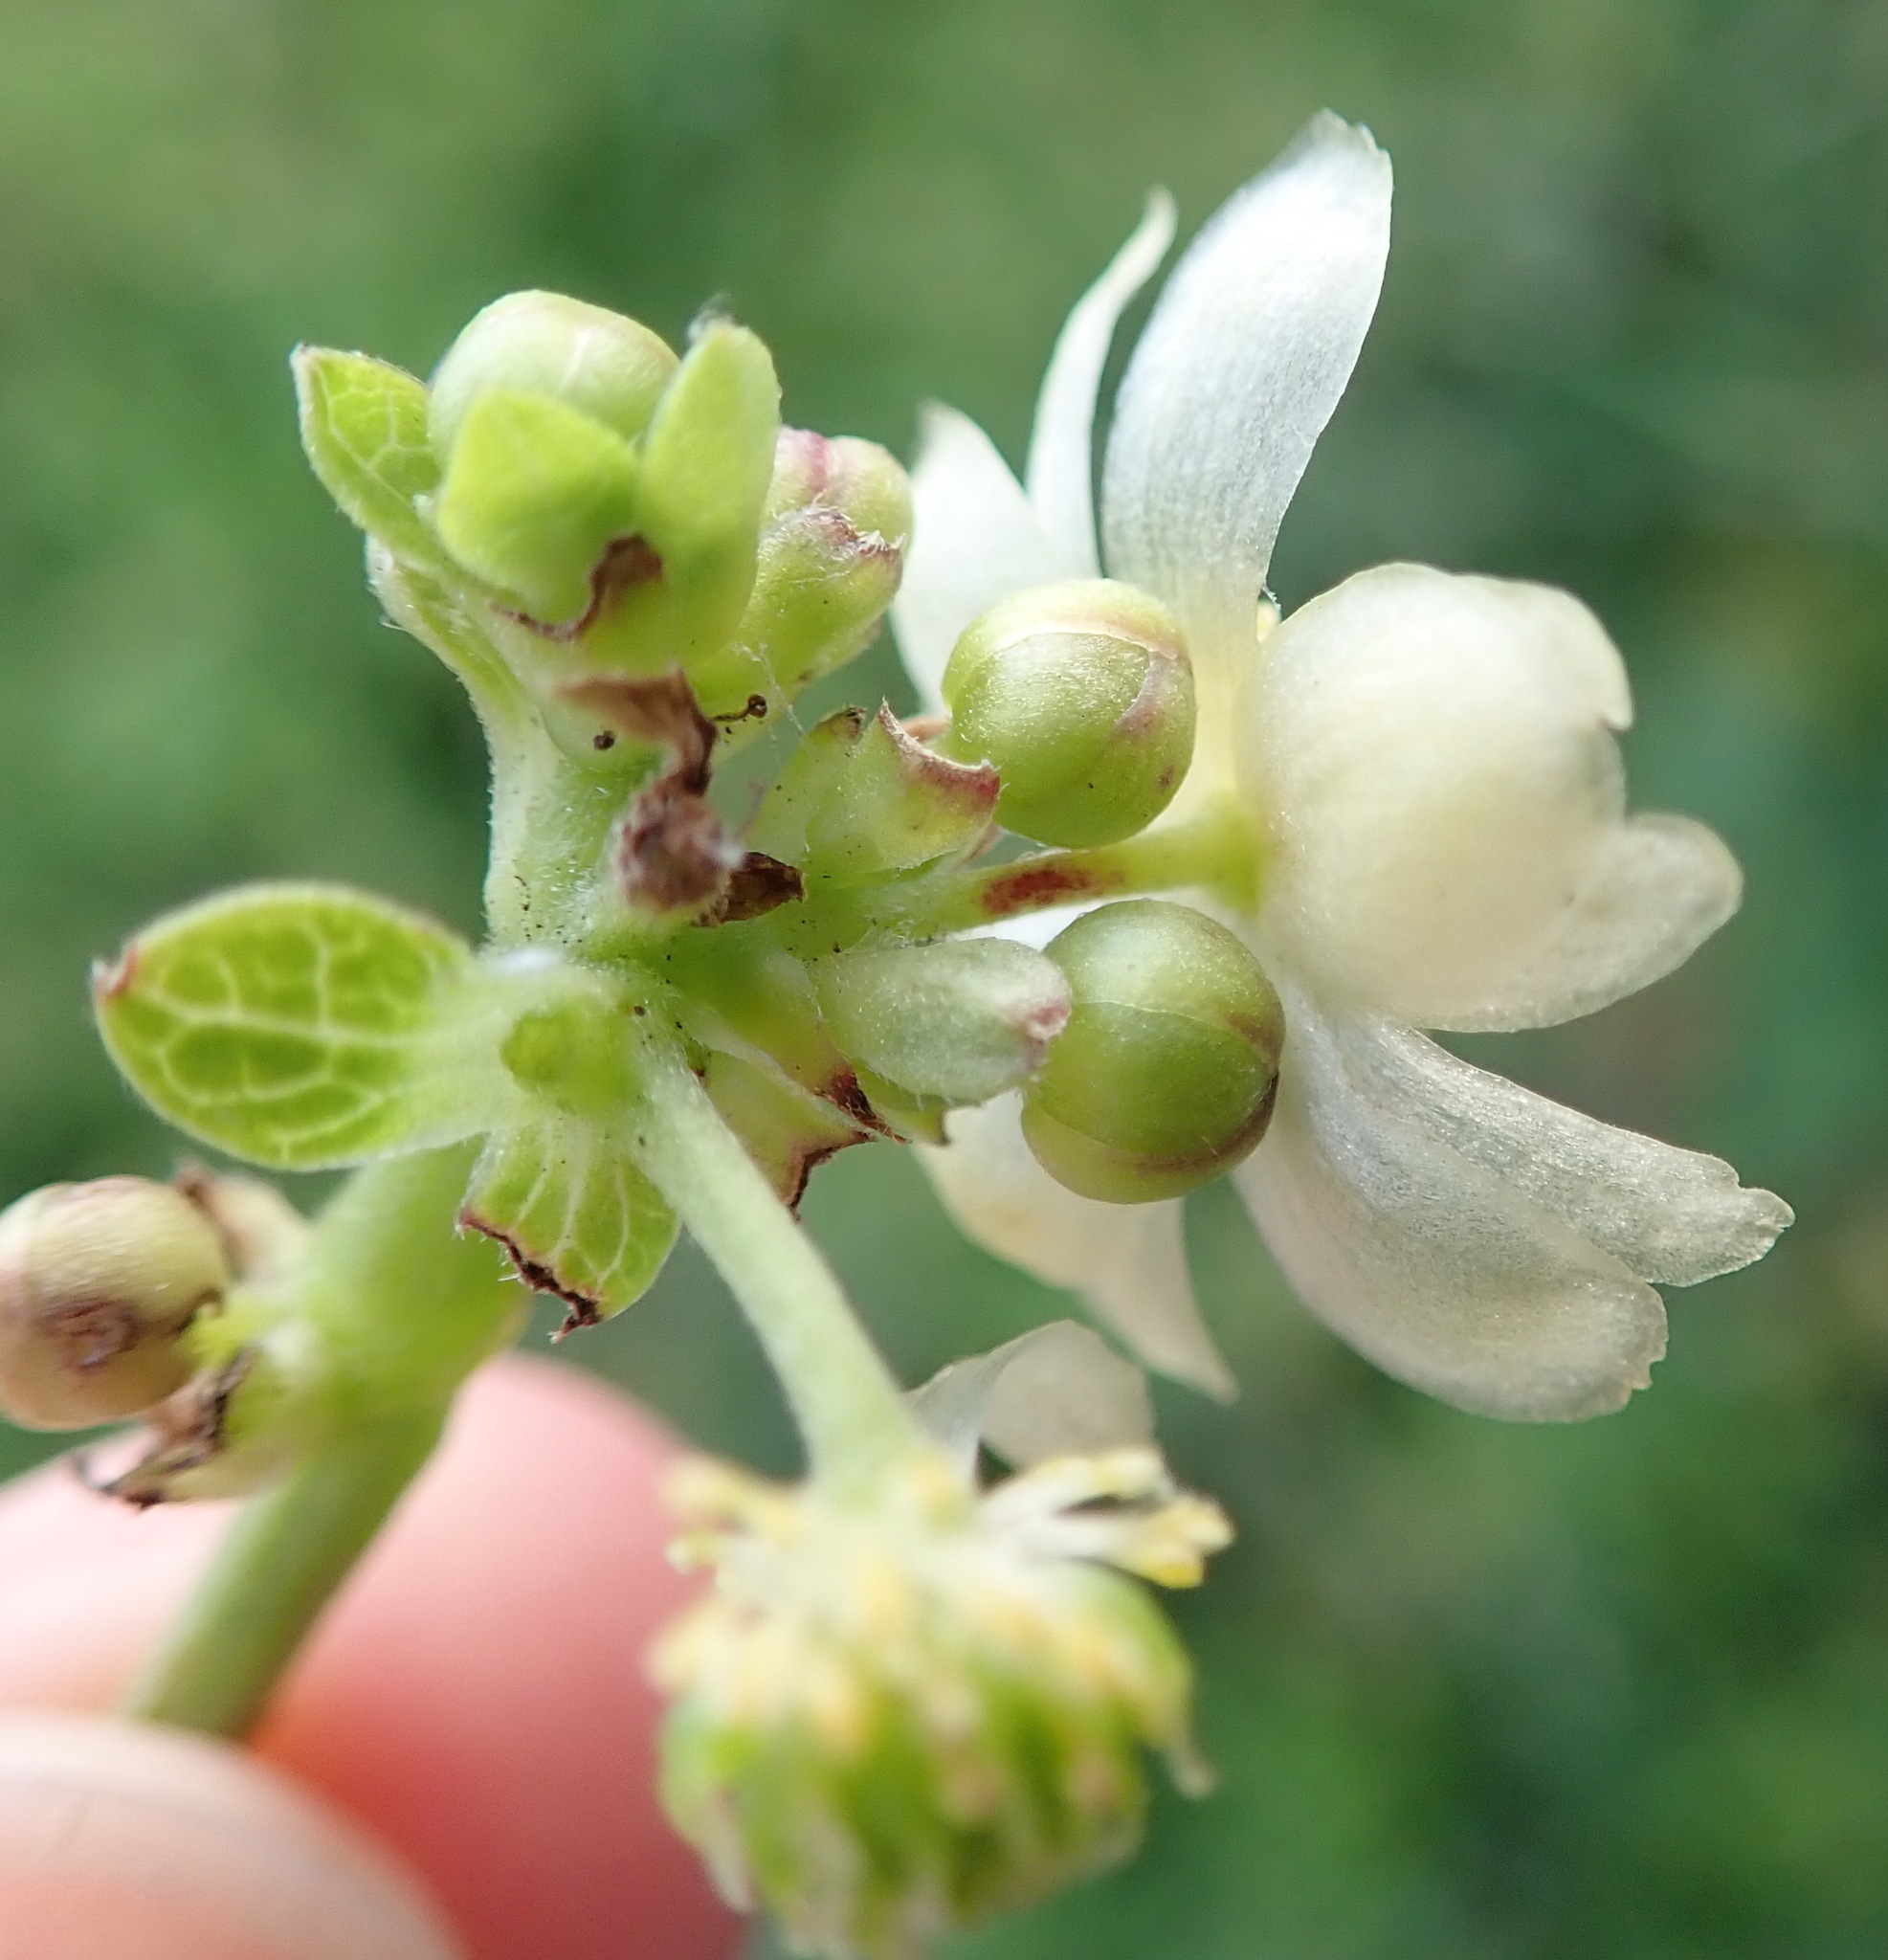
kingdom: Plantae
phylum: Tracheophyta
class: Magnoliopsida
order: Ranunculales
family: Ranunculaceae
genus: Knowltonia
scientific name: Knowltonia vesicatoria
